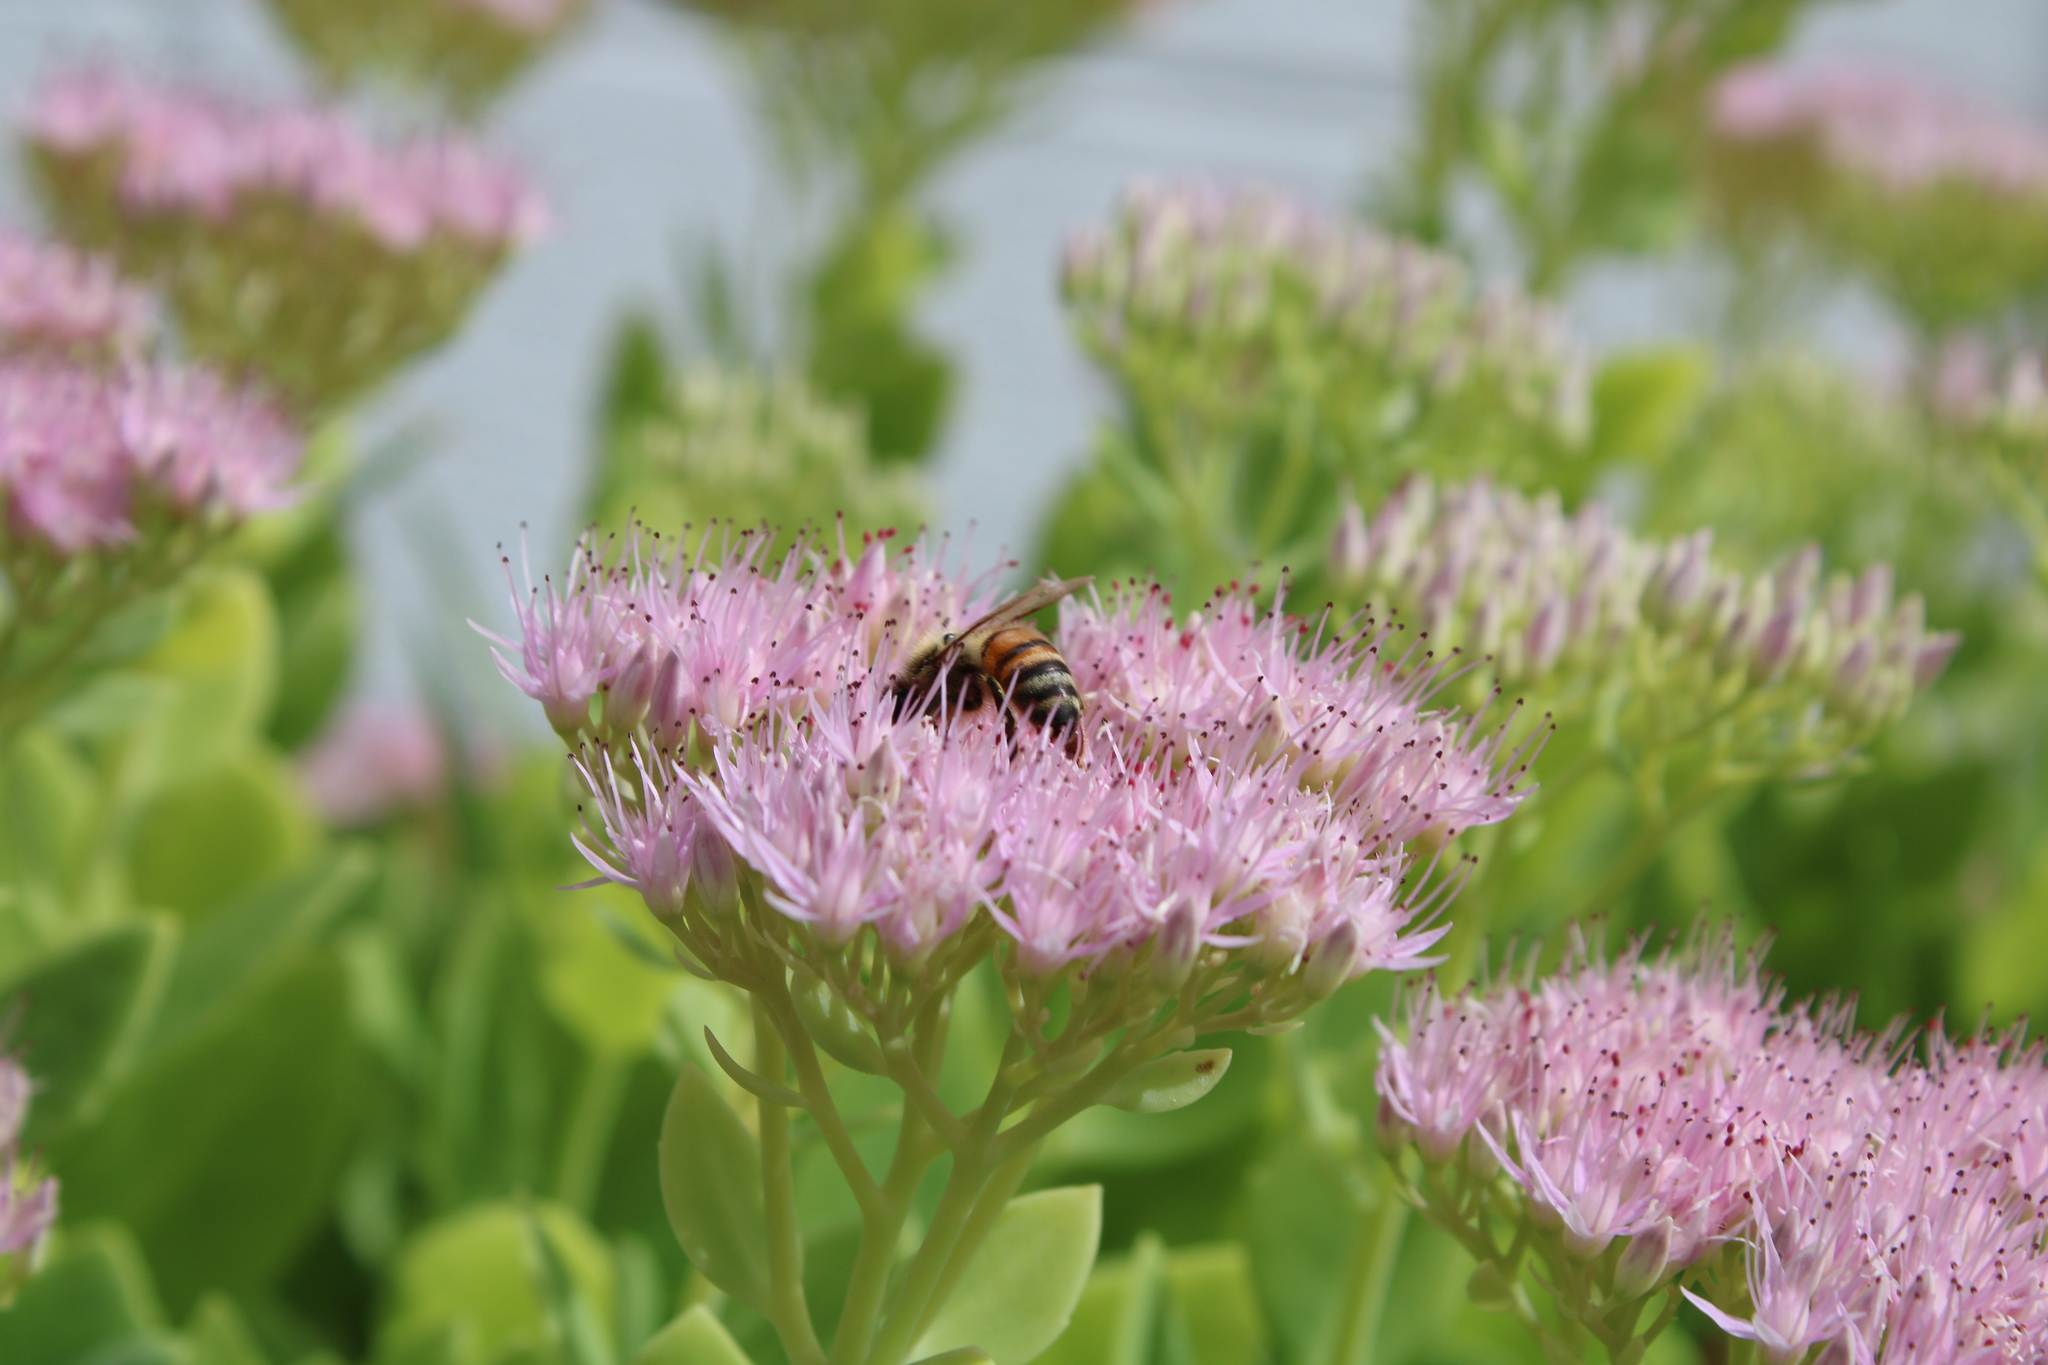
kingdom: Animalia
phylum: Arthropoda
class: Insecta
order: Hymenoptera
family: Apidae
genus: Apis
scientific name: Apis mellifera
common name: Honey bee
